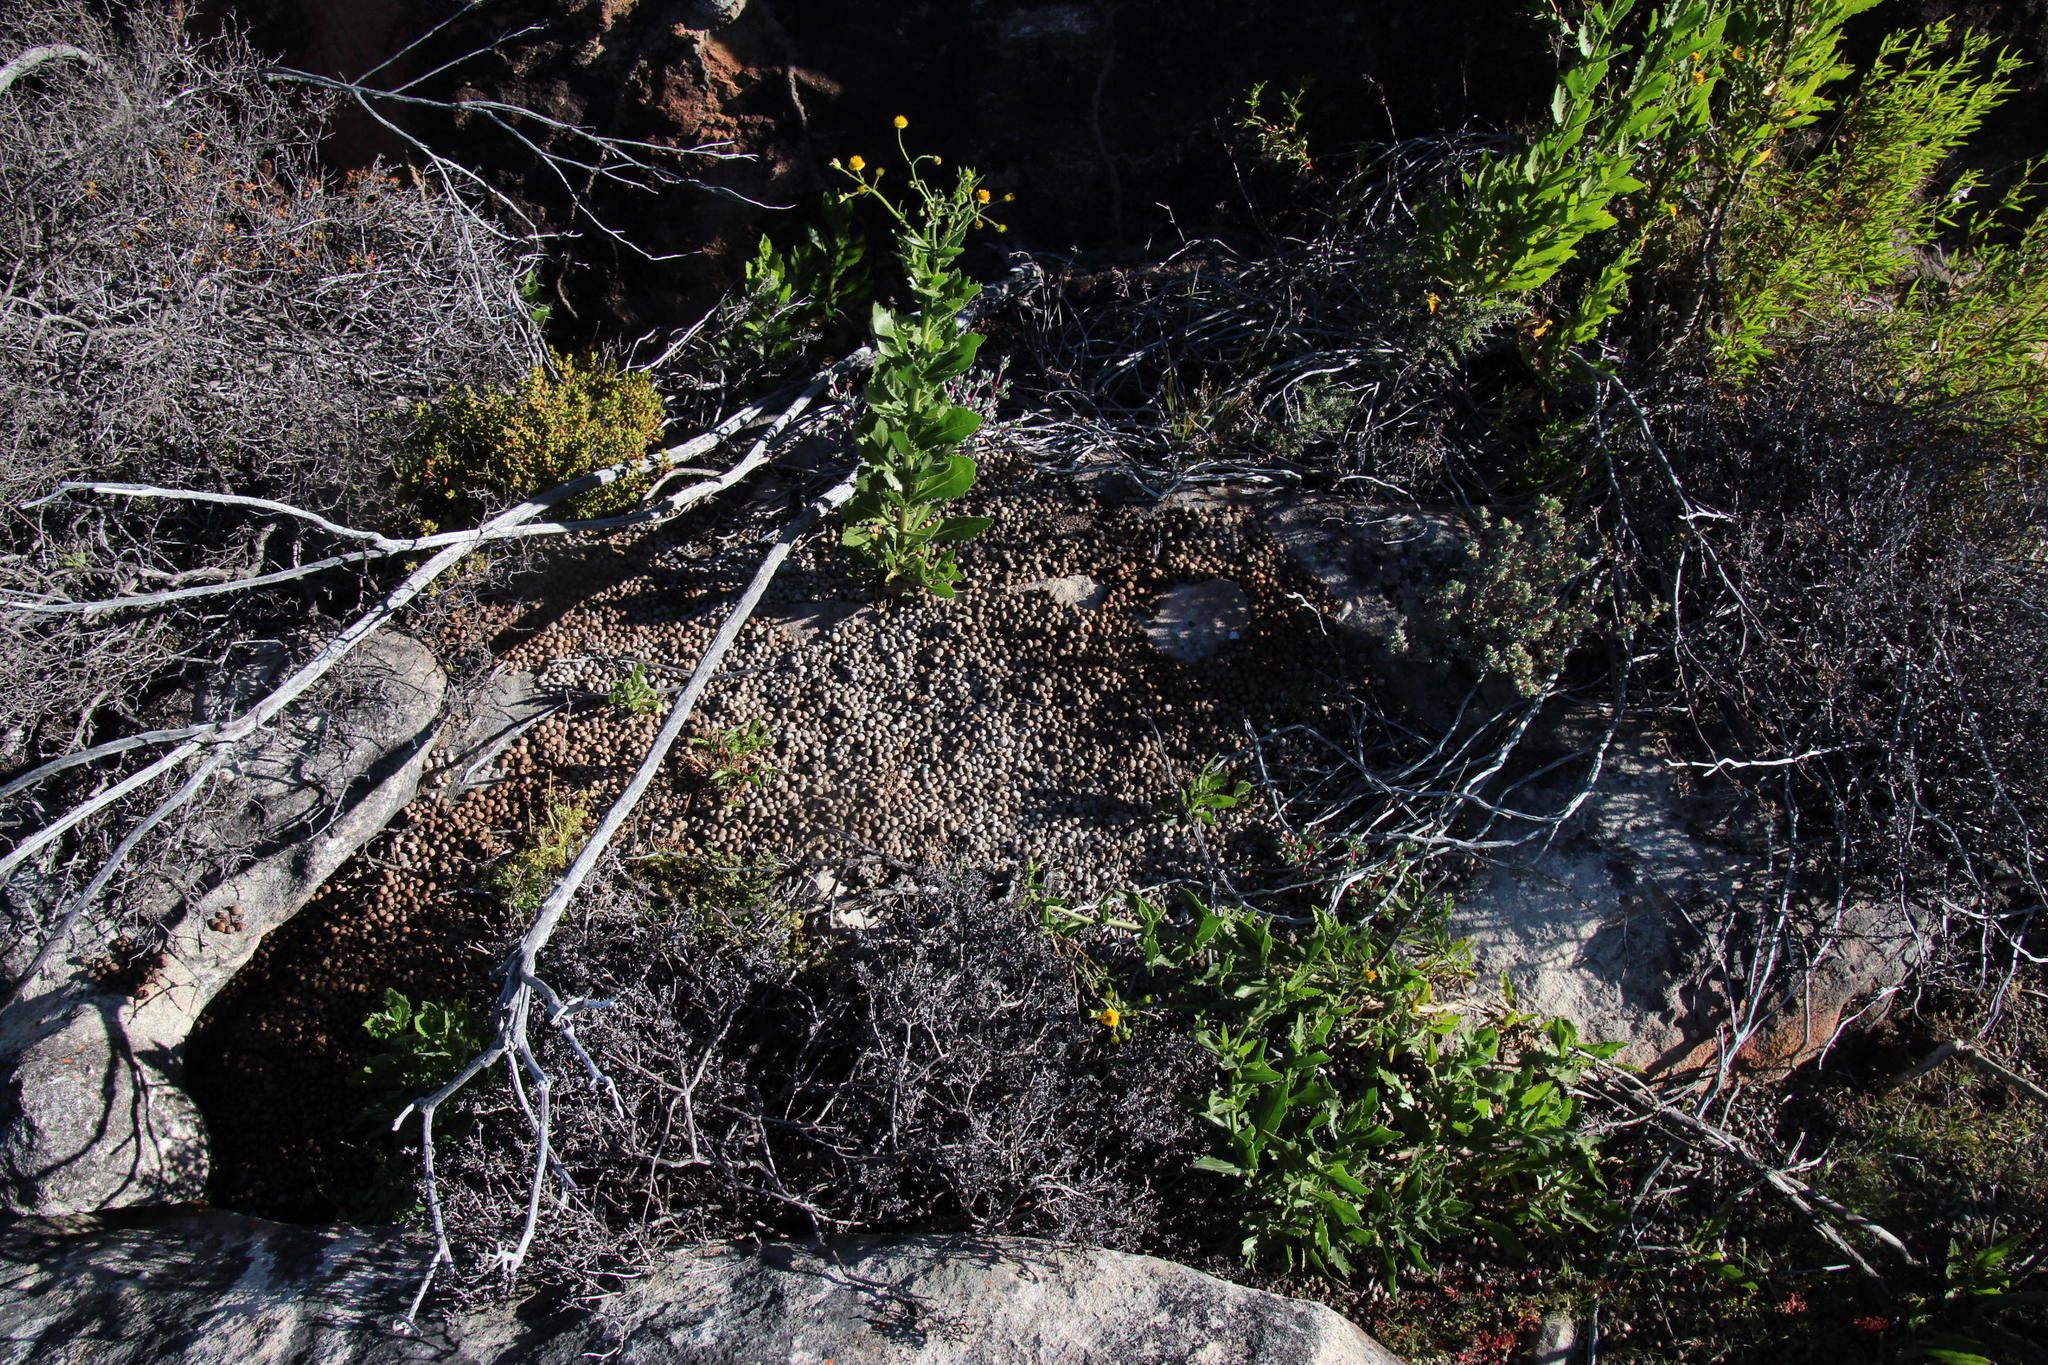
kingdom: Animalia
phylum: Chordata
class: Mammalia
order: Lagomorpha
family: Leporidae
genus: Pronolagus
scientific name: Pronolagus saundersiae
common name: Hewitt's red rock hare
